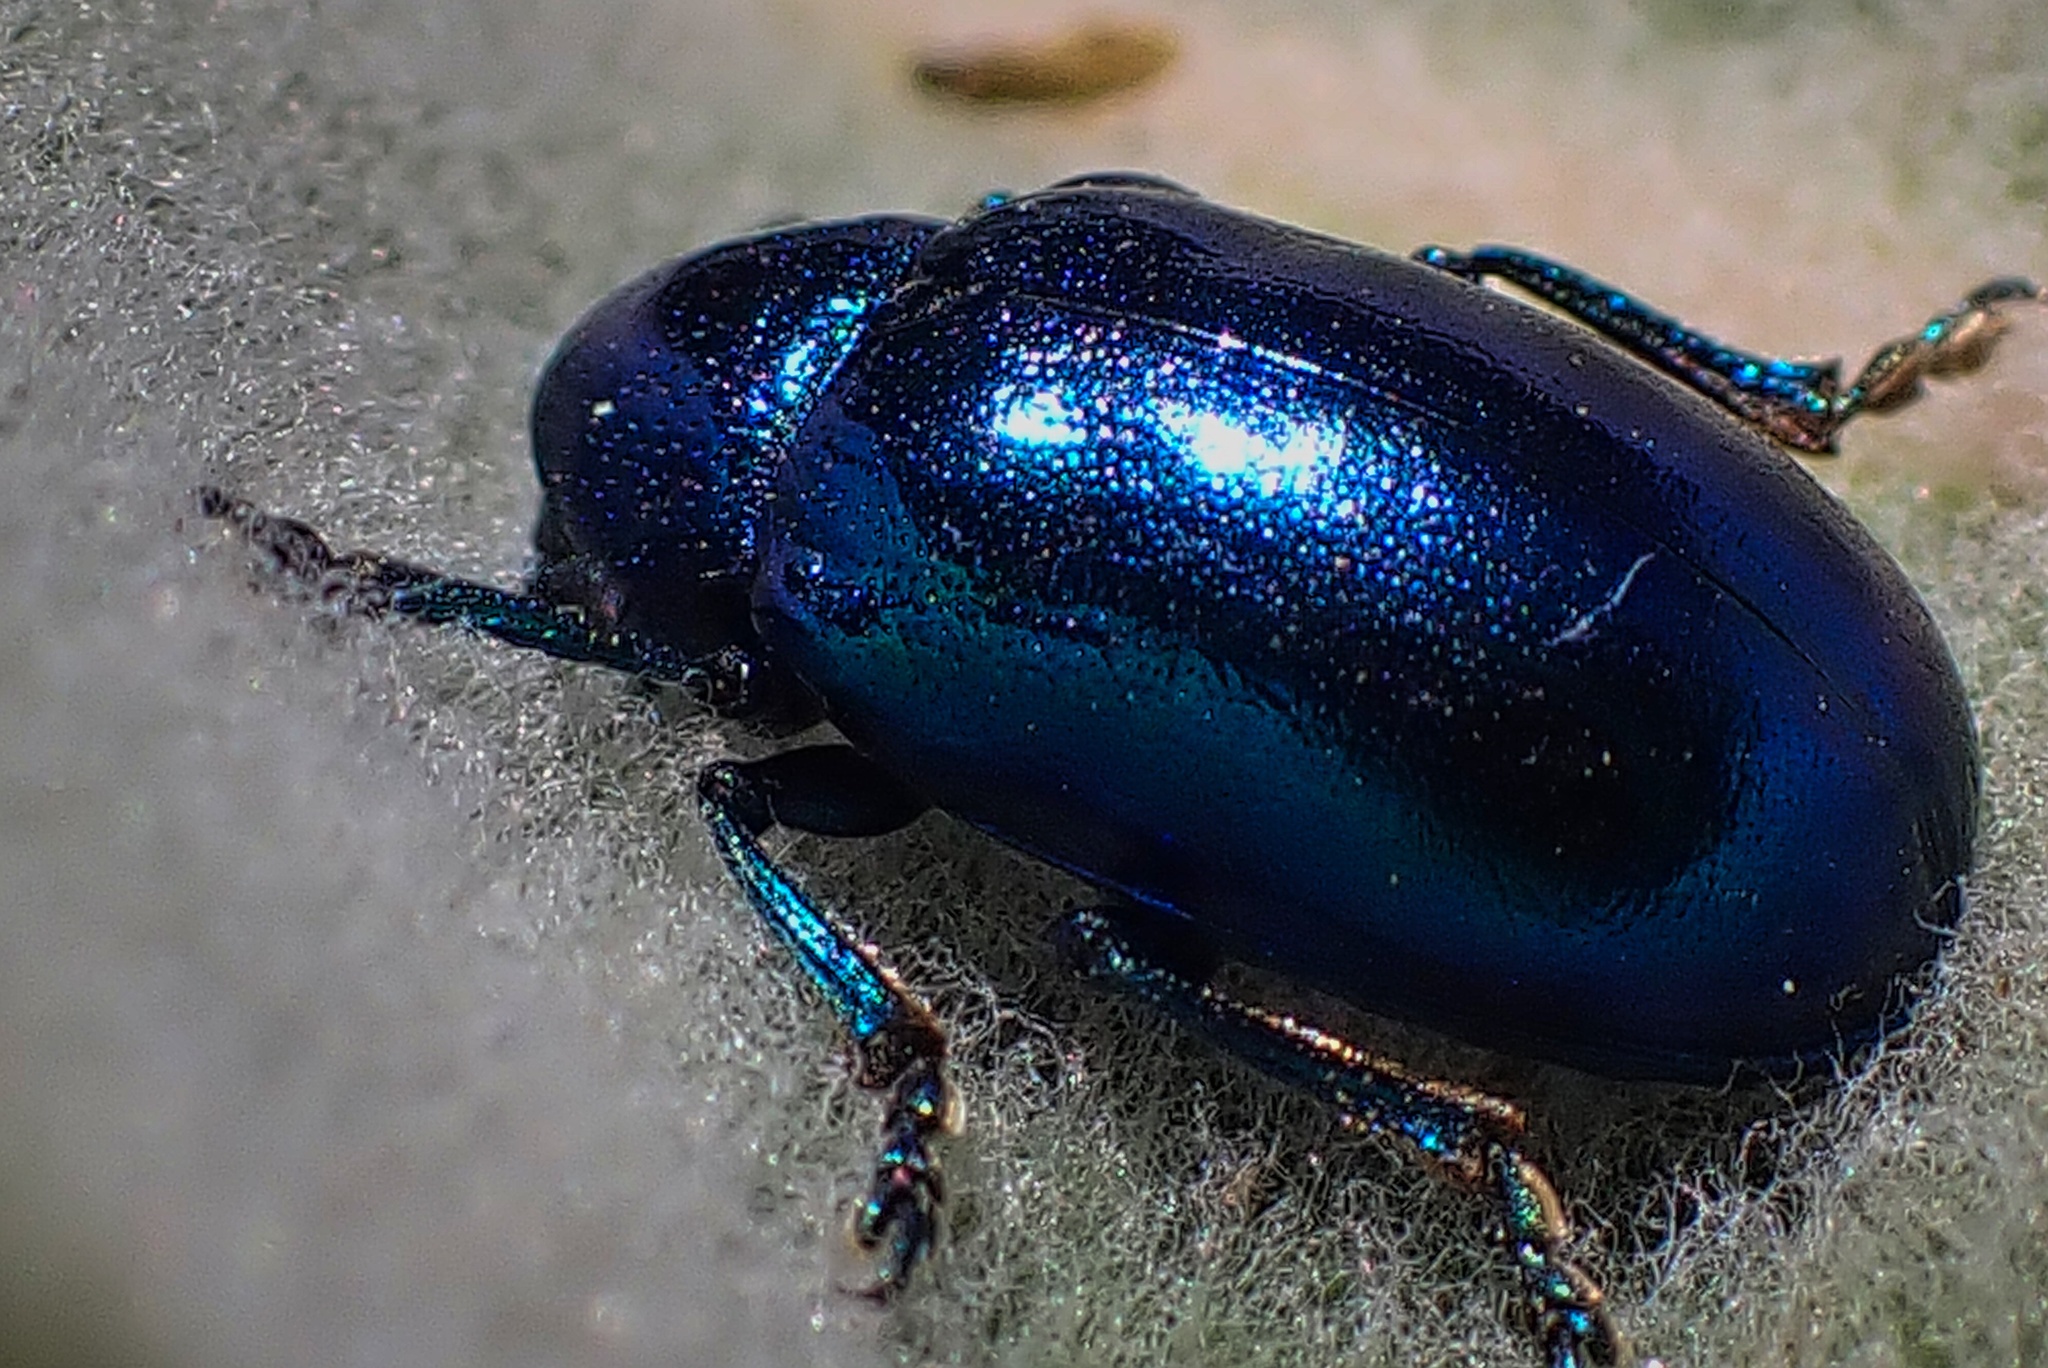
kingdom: Animalia
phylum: Arthropoda
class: Insecta
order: Coleoptera
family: Chrysomelidae
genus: Chrysochus
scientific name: Chrysochus cobaltinus
